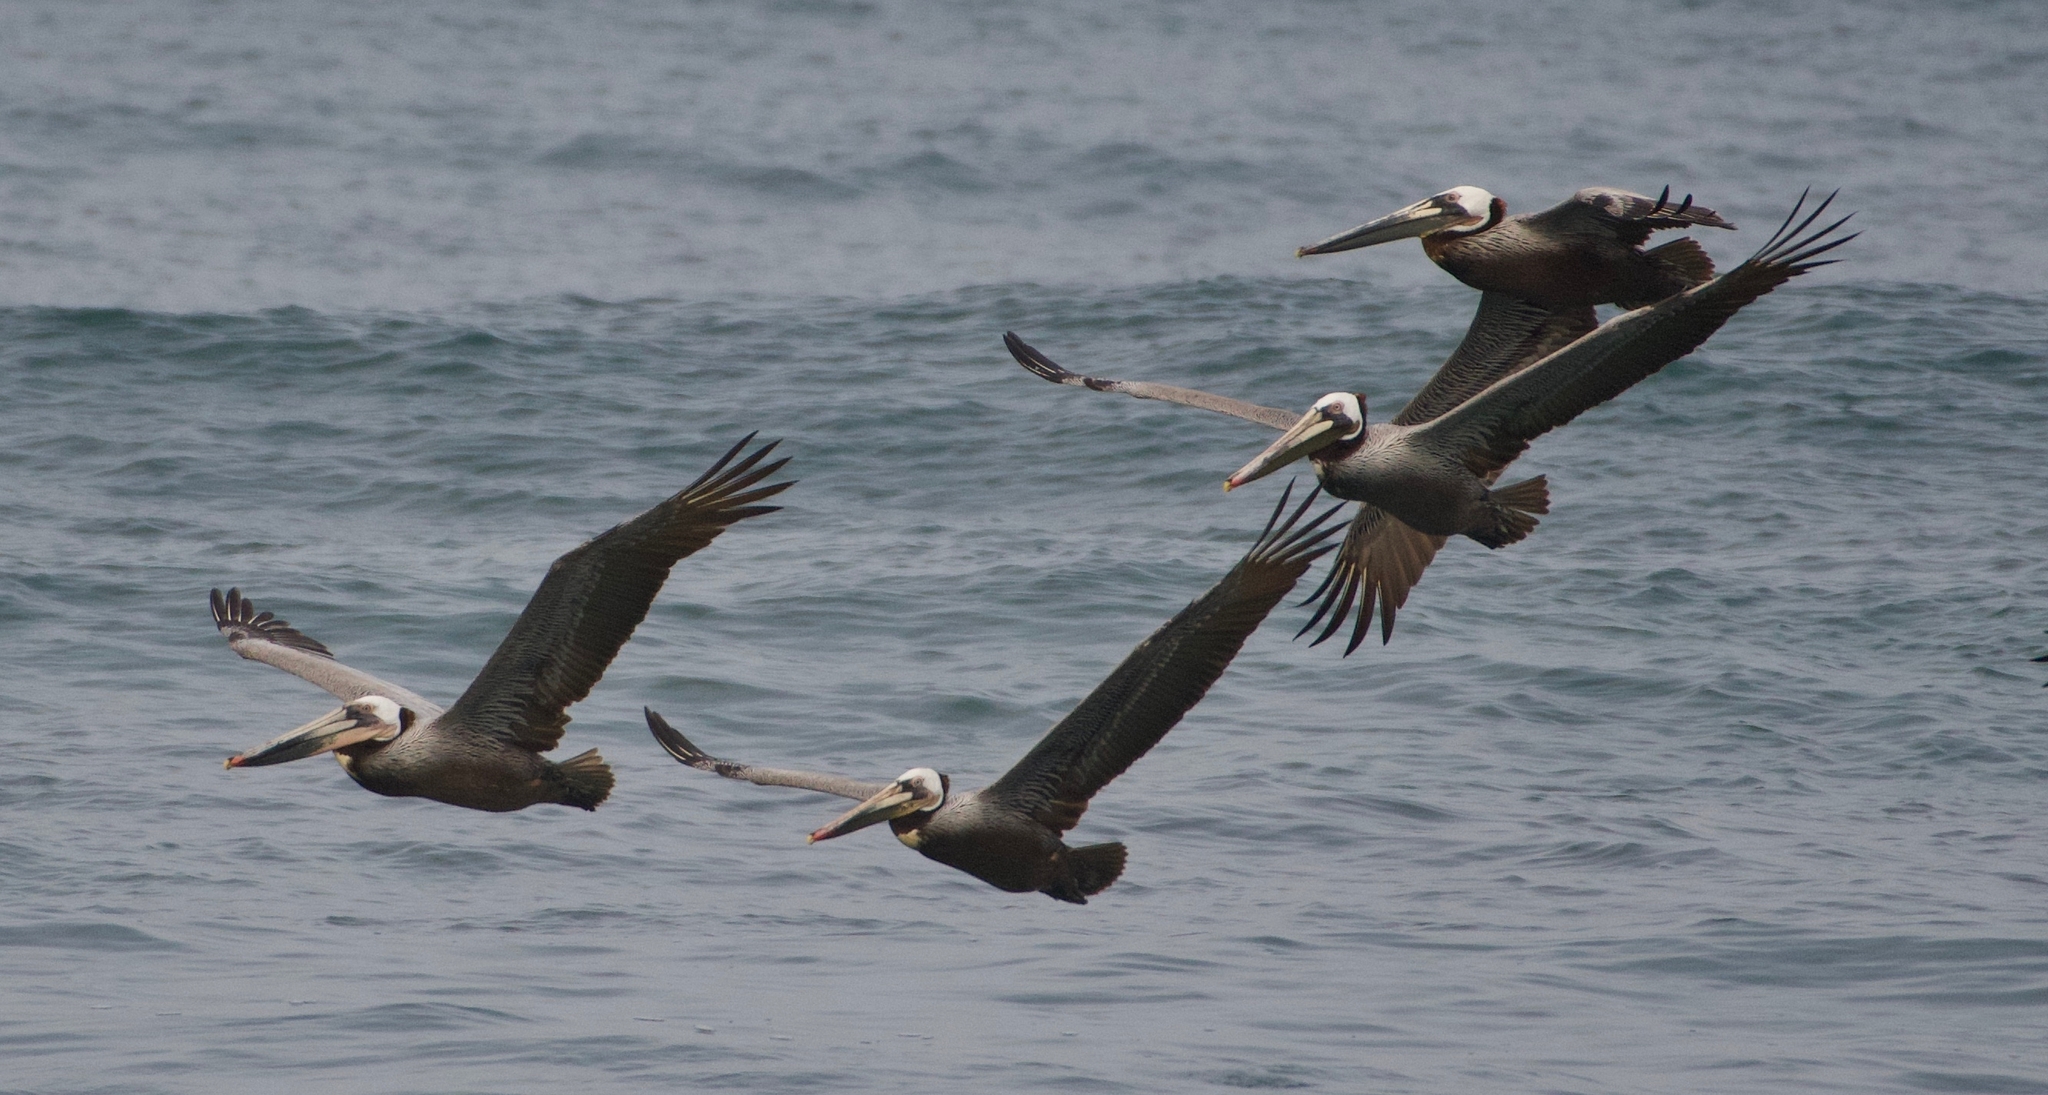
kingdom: Animalia
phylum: Chordata
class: Aves
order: Pelecaniformes
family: Pelecanidae
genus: Pelecanus
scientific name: Pelecanus occidentalis
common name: Brown pelican
